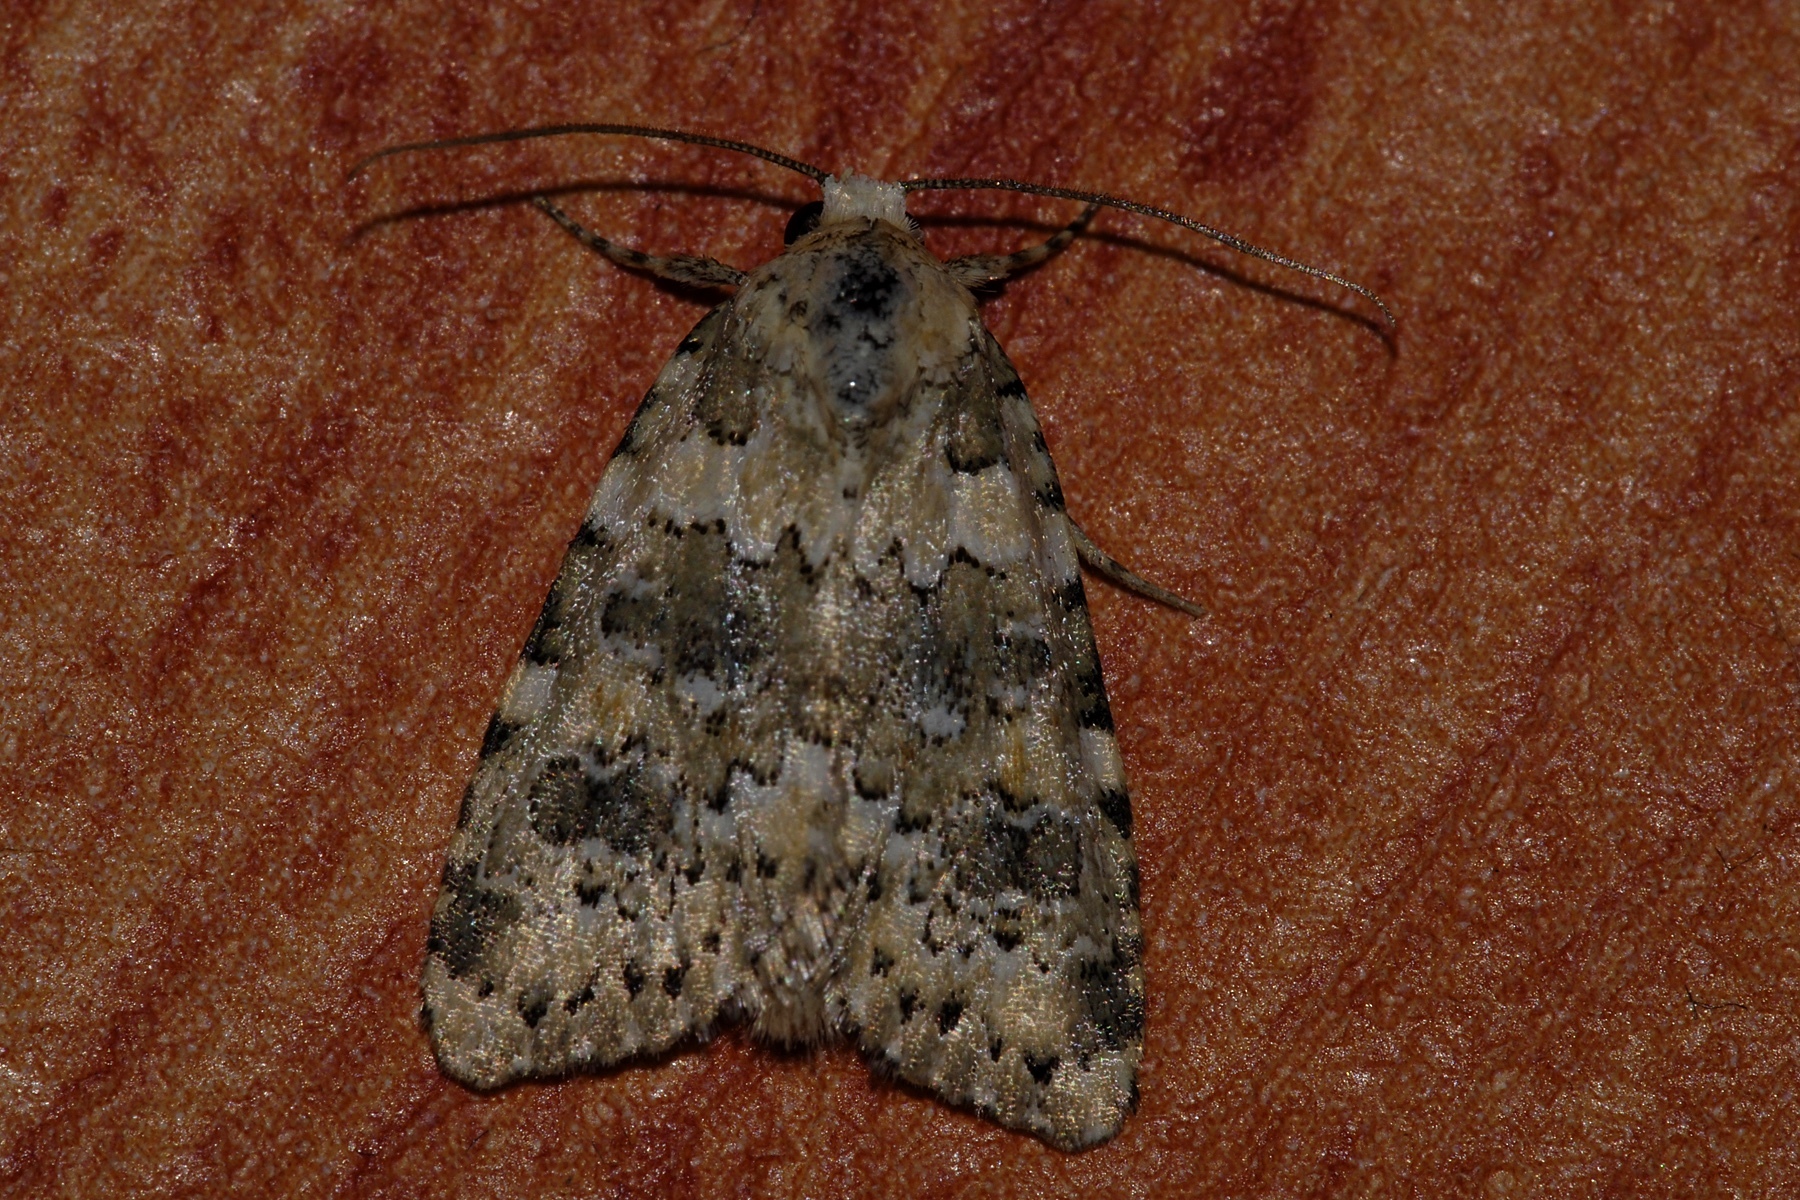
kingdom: Animalia
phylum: Arthropoda
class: Insecta
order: Lepidoptera
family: Noctuidae
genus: Bryophila
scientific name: Bryophila domestica
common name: Marbled beauty
